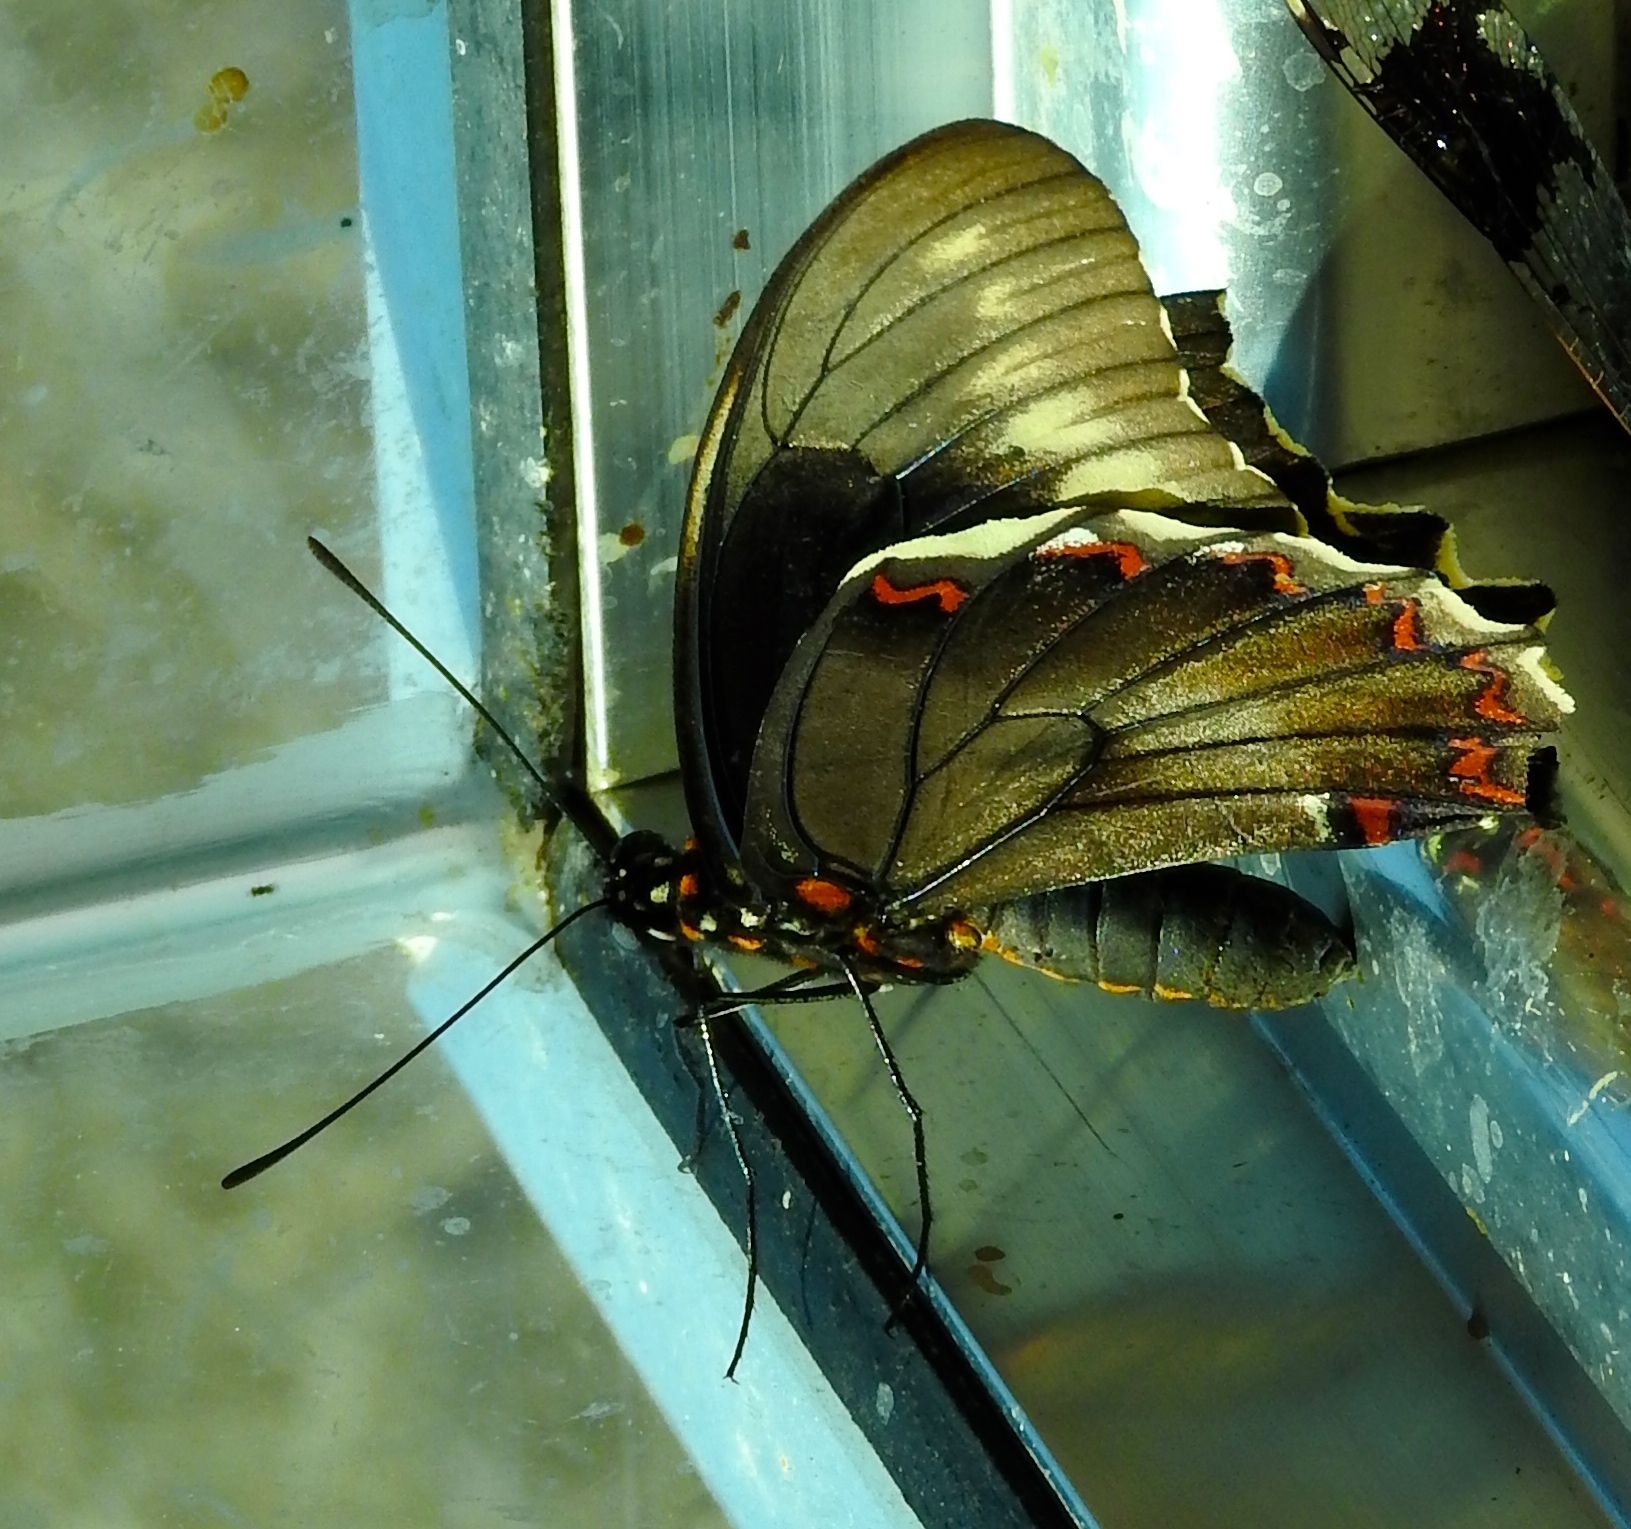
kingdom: Animalia
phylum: Arthropoda
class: Insecta
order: Lepidoptera
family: Papilionidae
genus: Battus
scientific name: Battus polydamas
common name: Polydamas swallowtail
